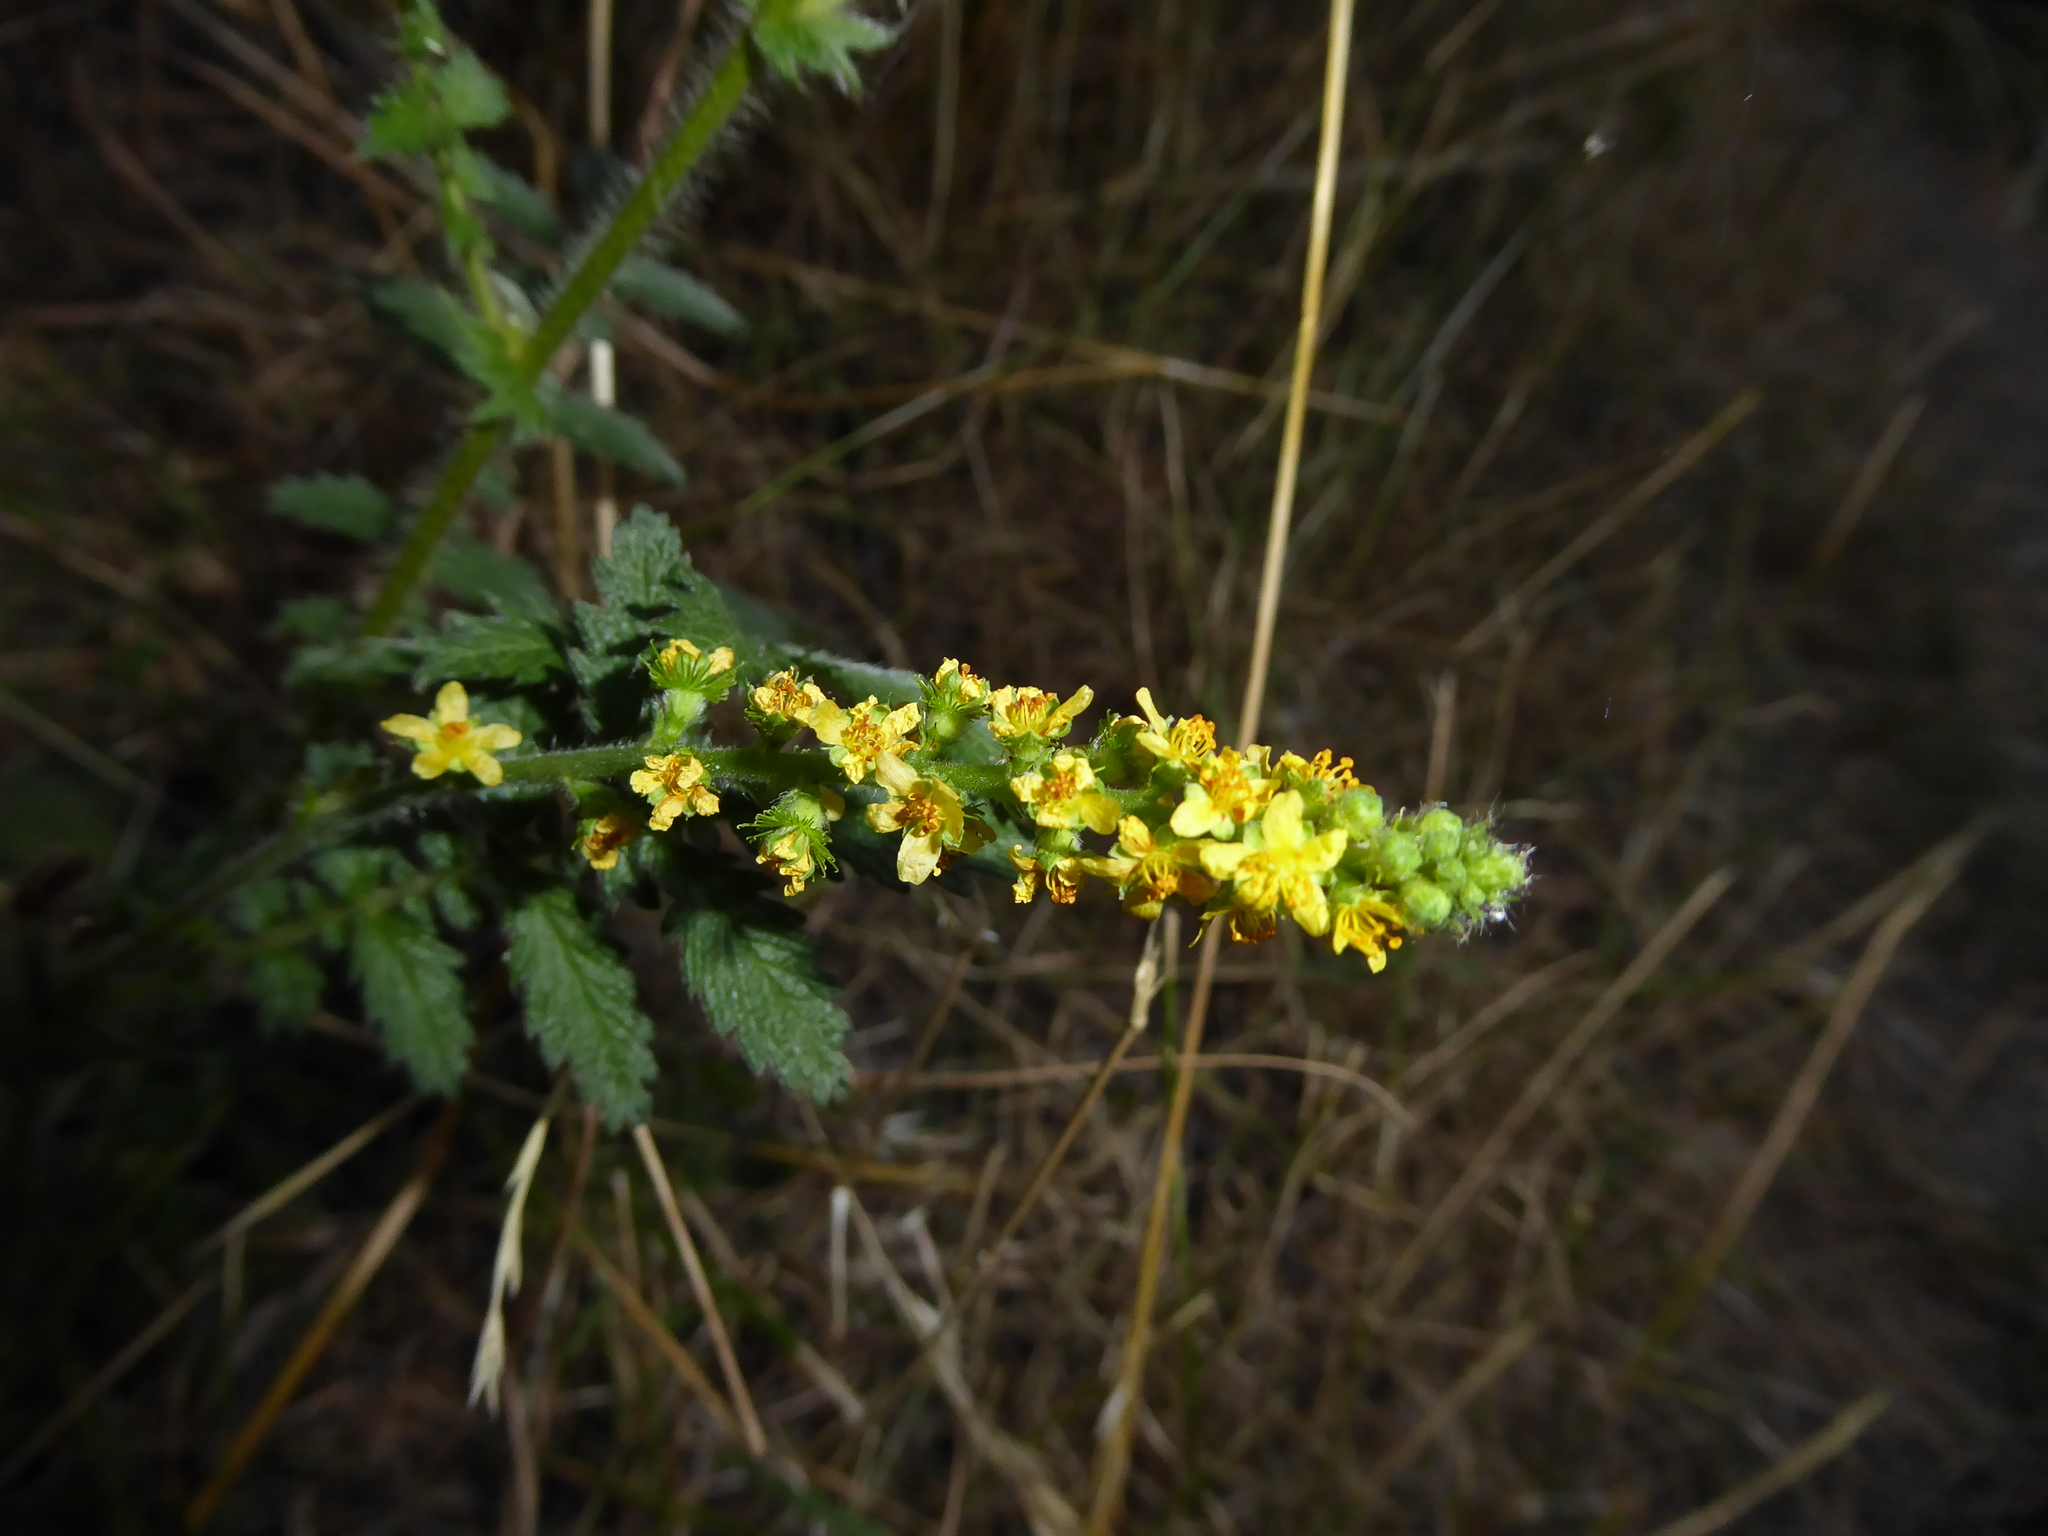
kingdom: Plantae
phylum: Tracheophyta
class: Magnoliopsida
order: Rosales
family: Rosaceae
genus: Agrimonia
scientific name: Agrimonia eupatoria
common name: Agrimony
